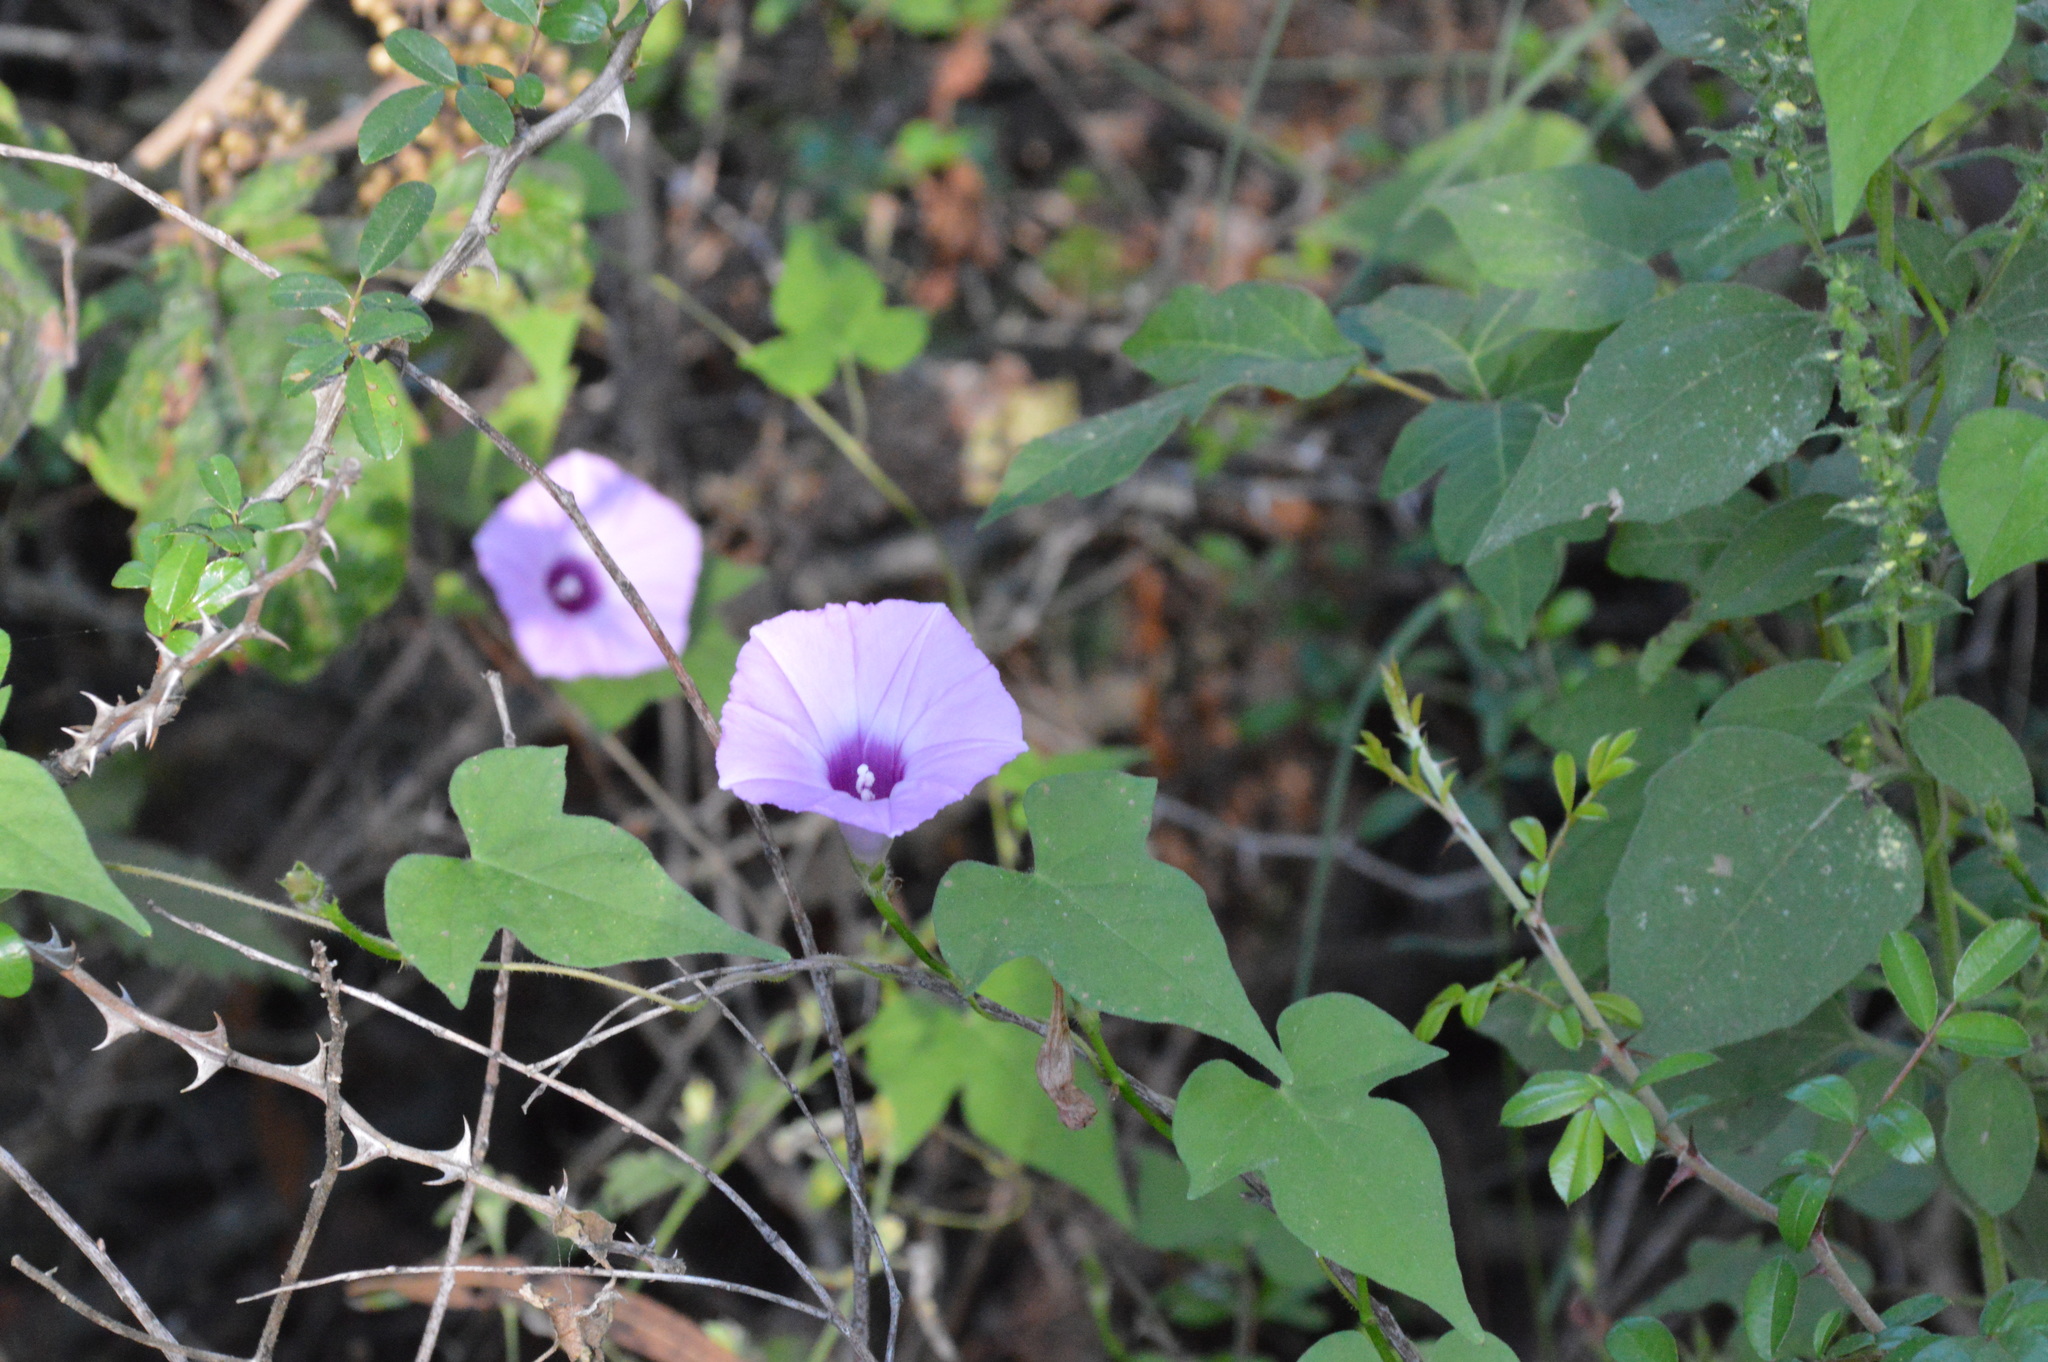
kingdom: Plantae
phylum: Tracheophyta
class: Magnoliopsida
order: Solanales
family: Convolvulaceae
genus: Ipomoea
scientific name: Ipomoea cordatotriloba
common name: Cotton morning glory
